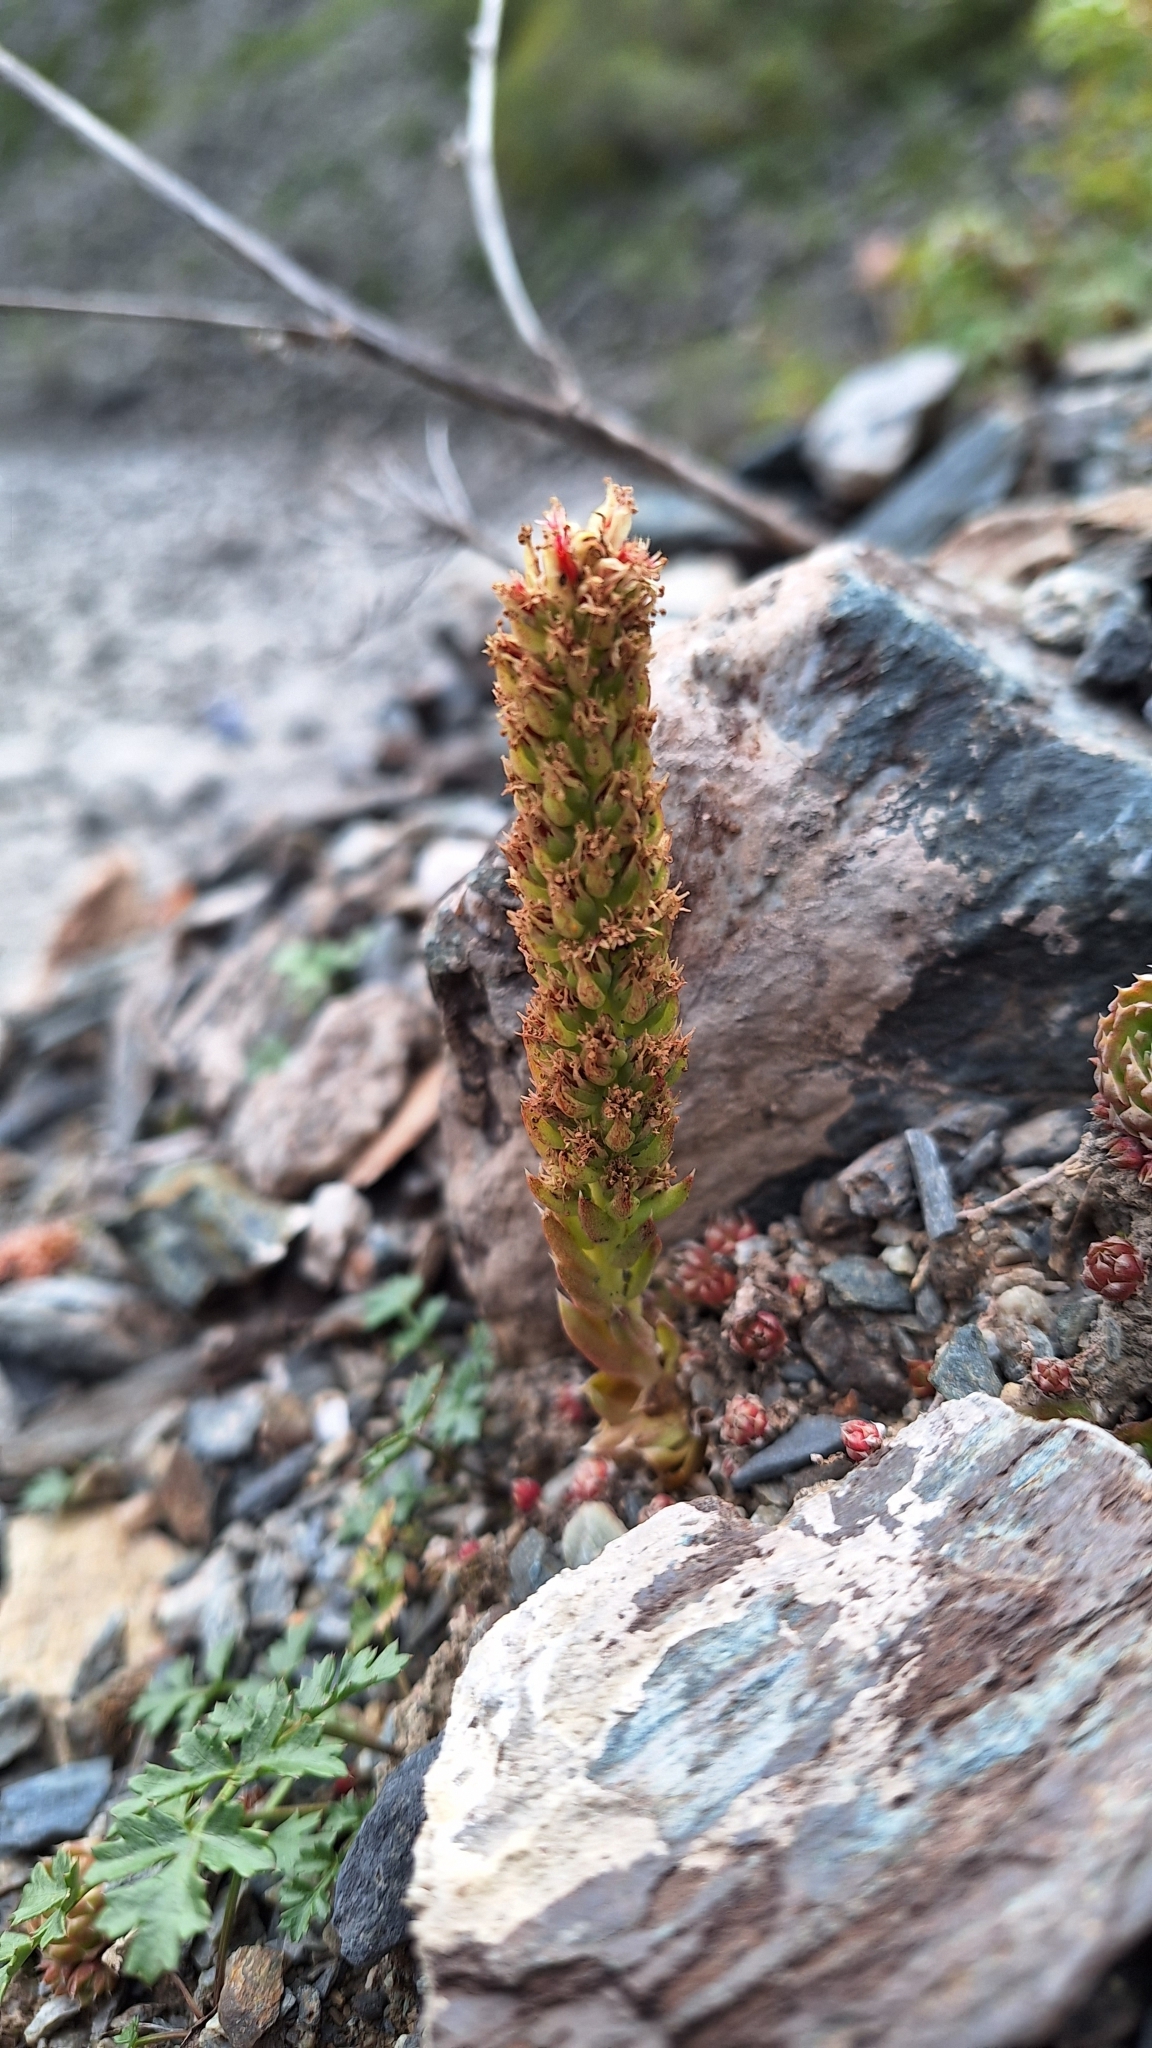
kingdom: Plantae
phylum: Tracheophyta
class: Magnoliopsida
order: Saxifragales
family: Crassulaceae
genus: Orostachys
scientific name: Orostachys spinosa
